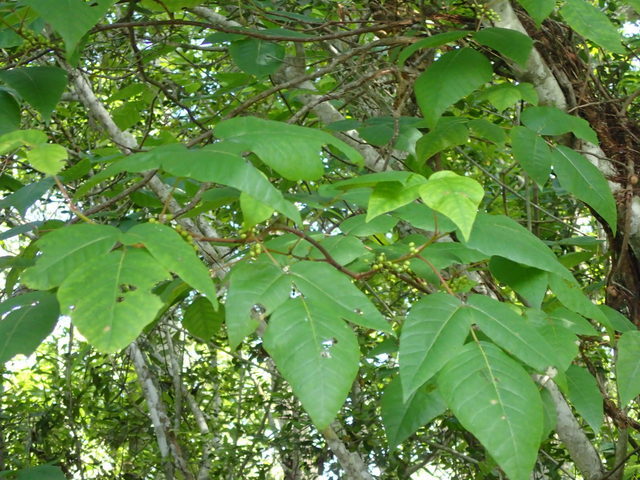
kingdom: Plantae
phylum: Tracheophyta
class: Magnoliopsida
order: Sapindales
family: Anacardiaceae
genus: Toxicodendron
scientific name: Toxicodendron radicans
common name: Poison ivy
